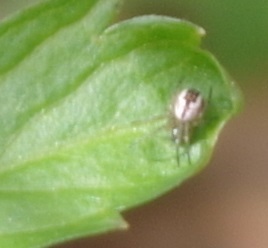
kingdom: Animalia
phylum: Arthropoda
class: Arachnida
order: Araneae
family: Araneidae
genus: Mangora
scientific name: Mangora acalypha
